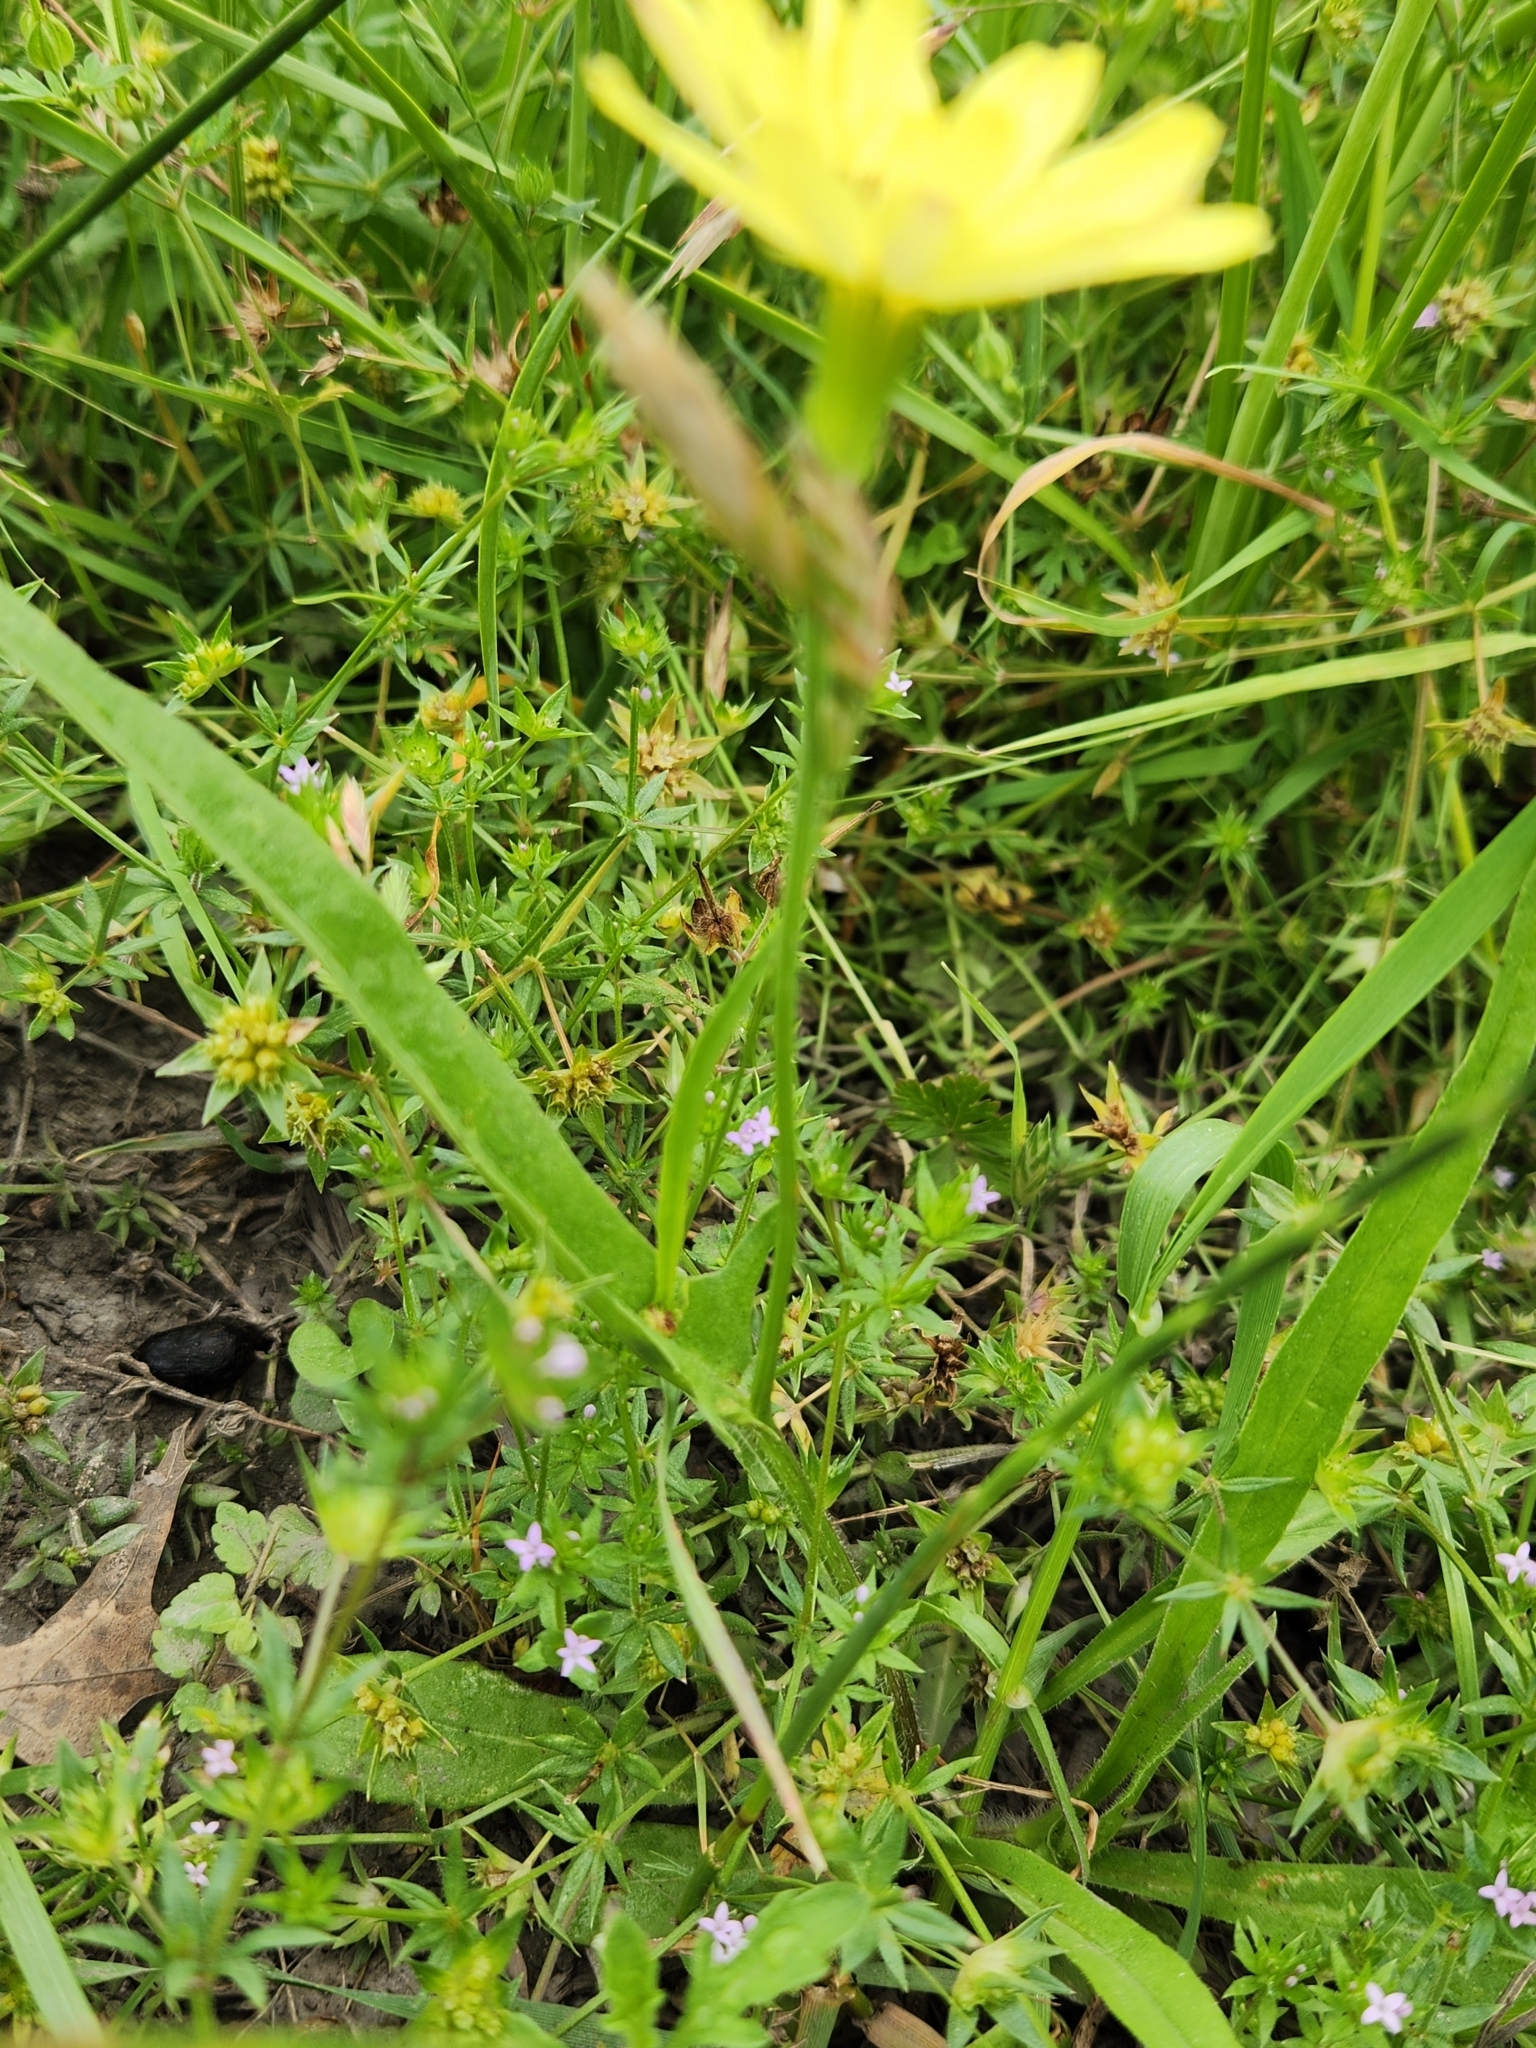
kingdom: Plantae
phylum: Tracheophyta
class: Magnoliopsida
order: Asterales
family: Asteraceae
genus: Pyrrhopappus
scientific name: Pyrrhopappus pauciflorus
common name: Texas false dandelion
